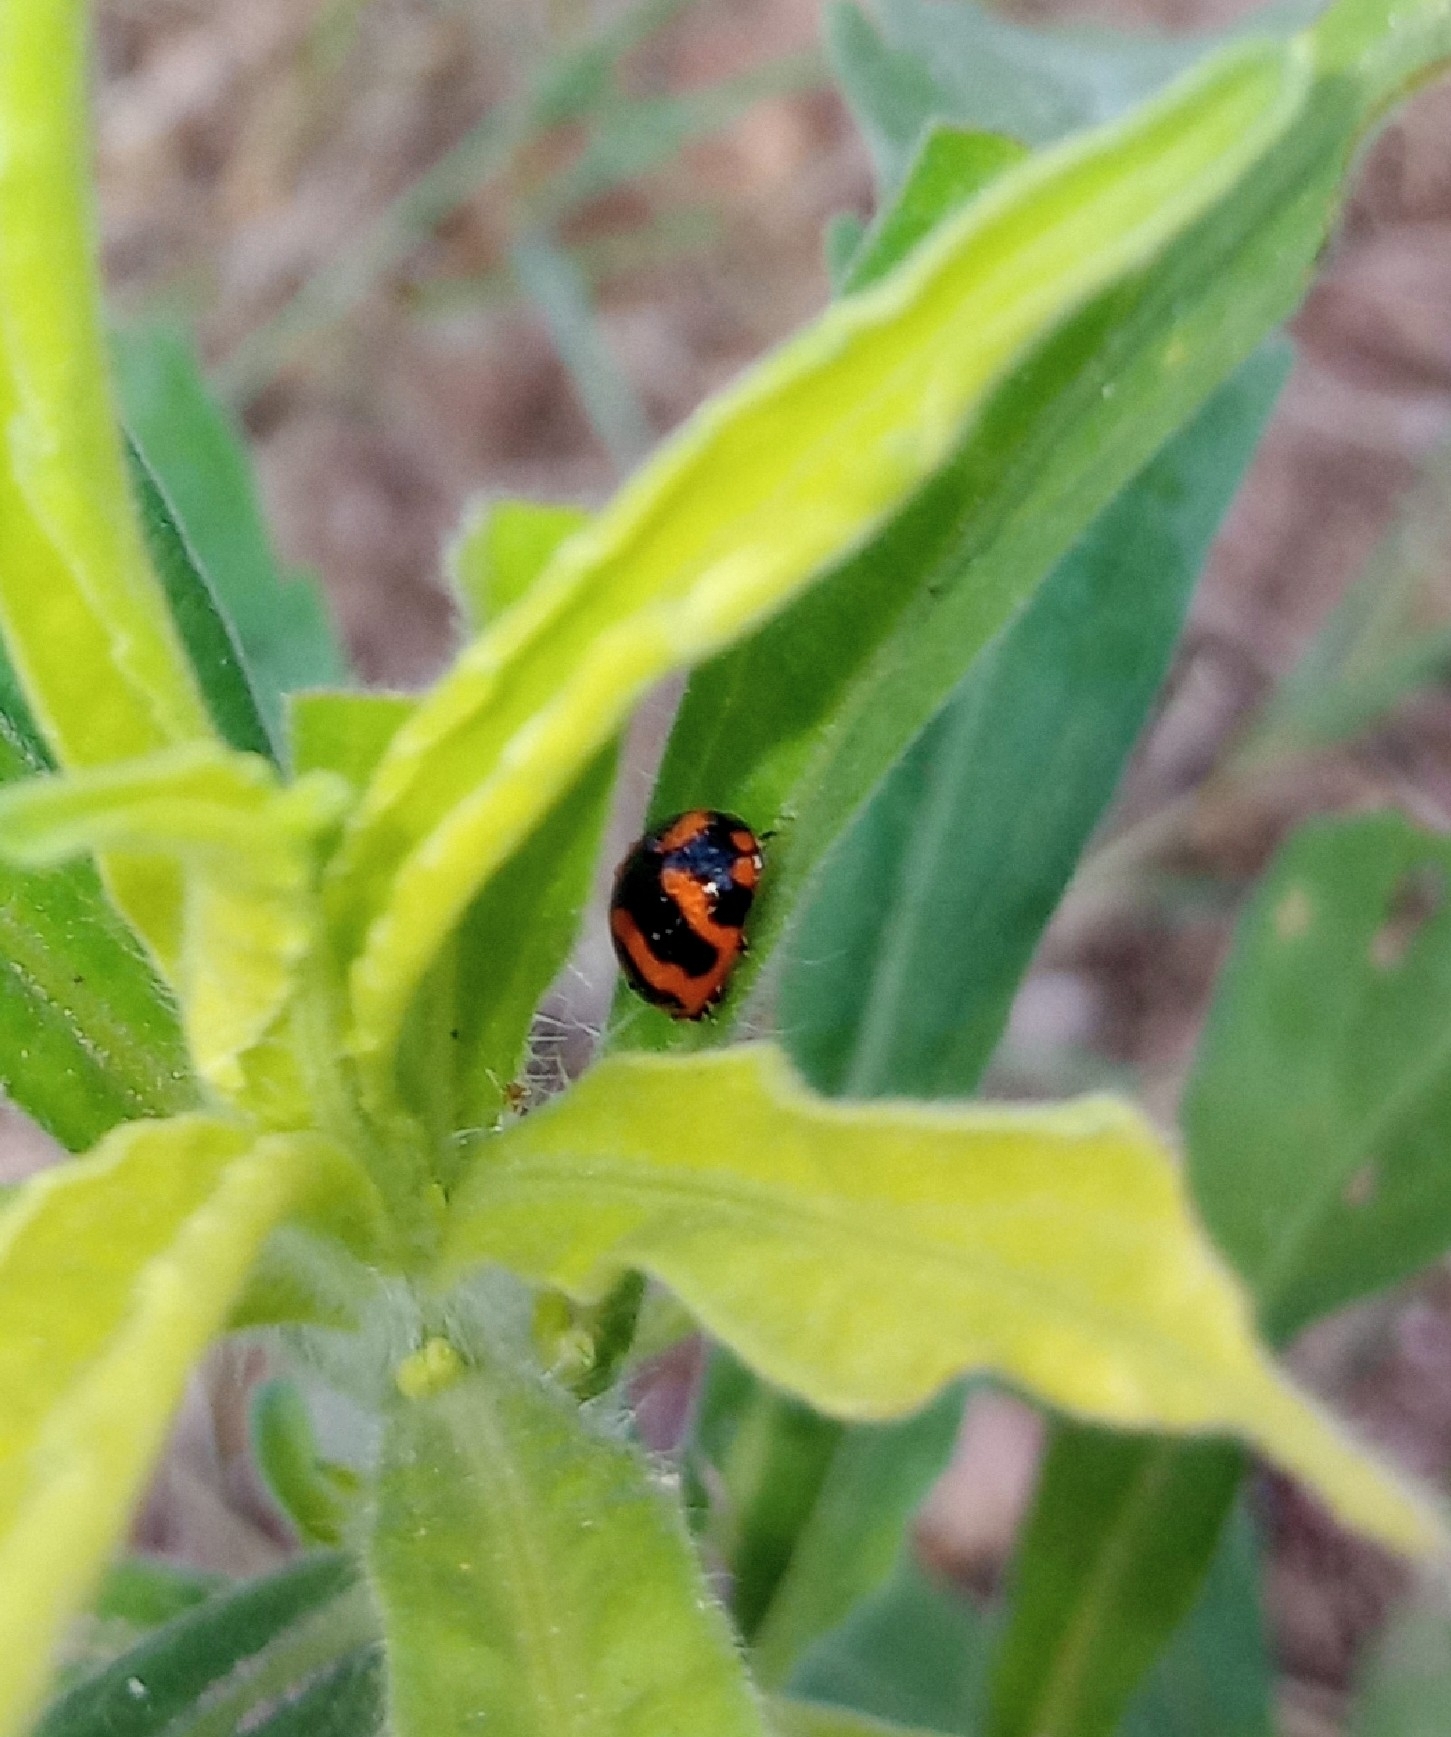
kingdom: Animalia
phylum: Arthropoda
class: Insecta
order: Coleoptera
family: Coccinellidae
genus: Coccinella
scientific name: Coccinella transversalis
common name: Transverse lady beetle
